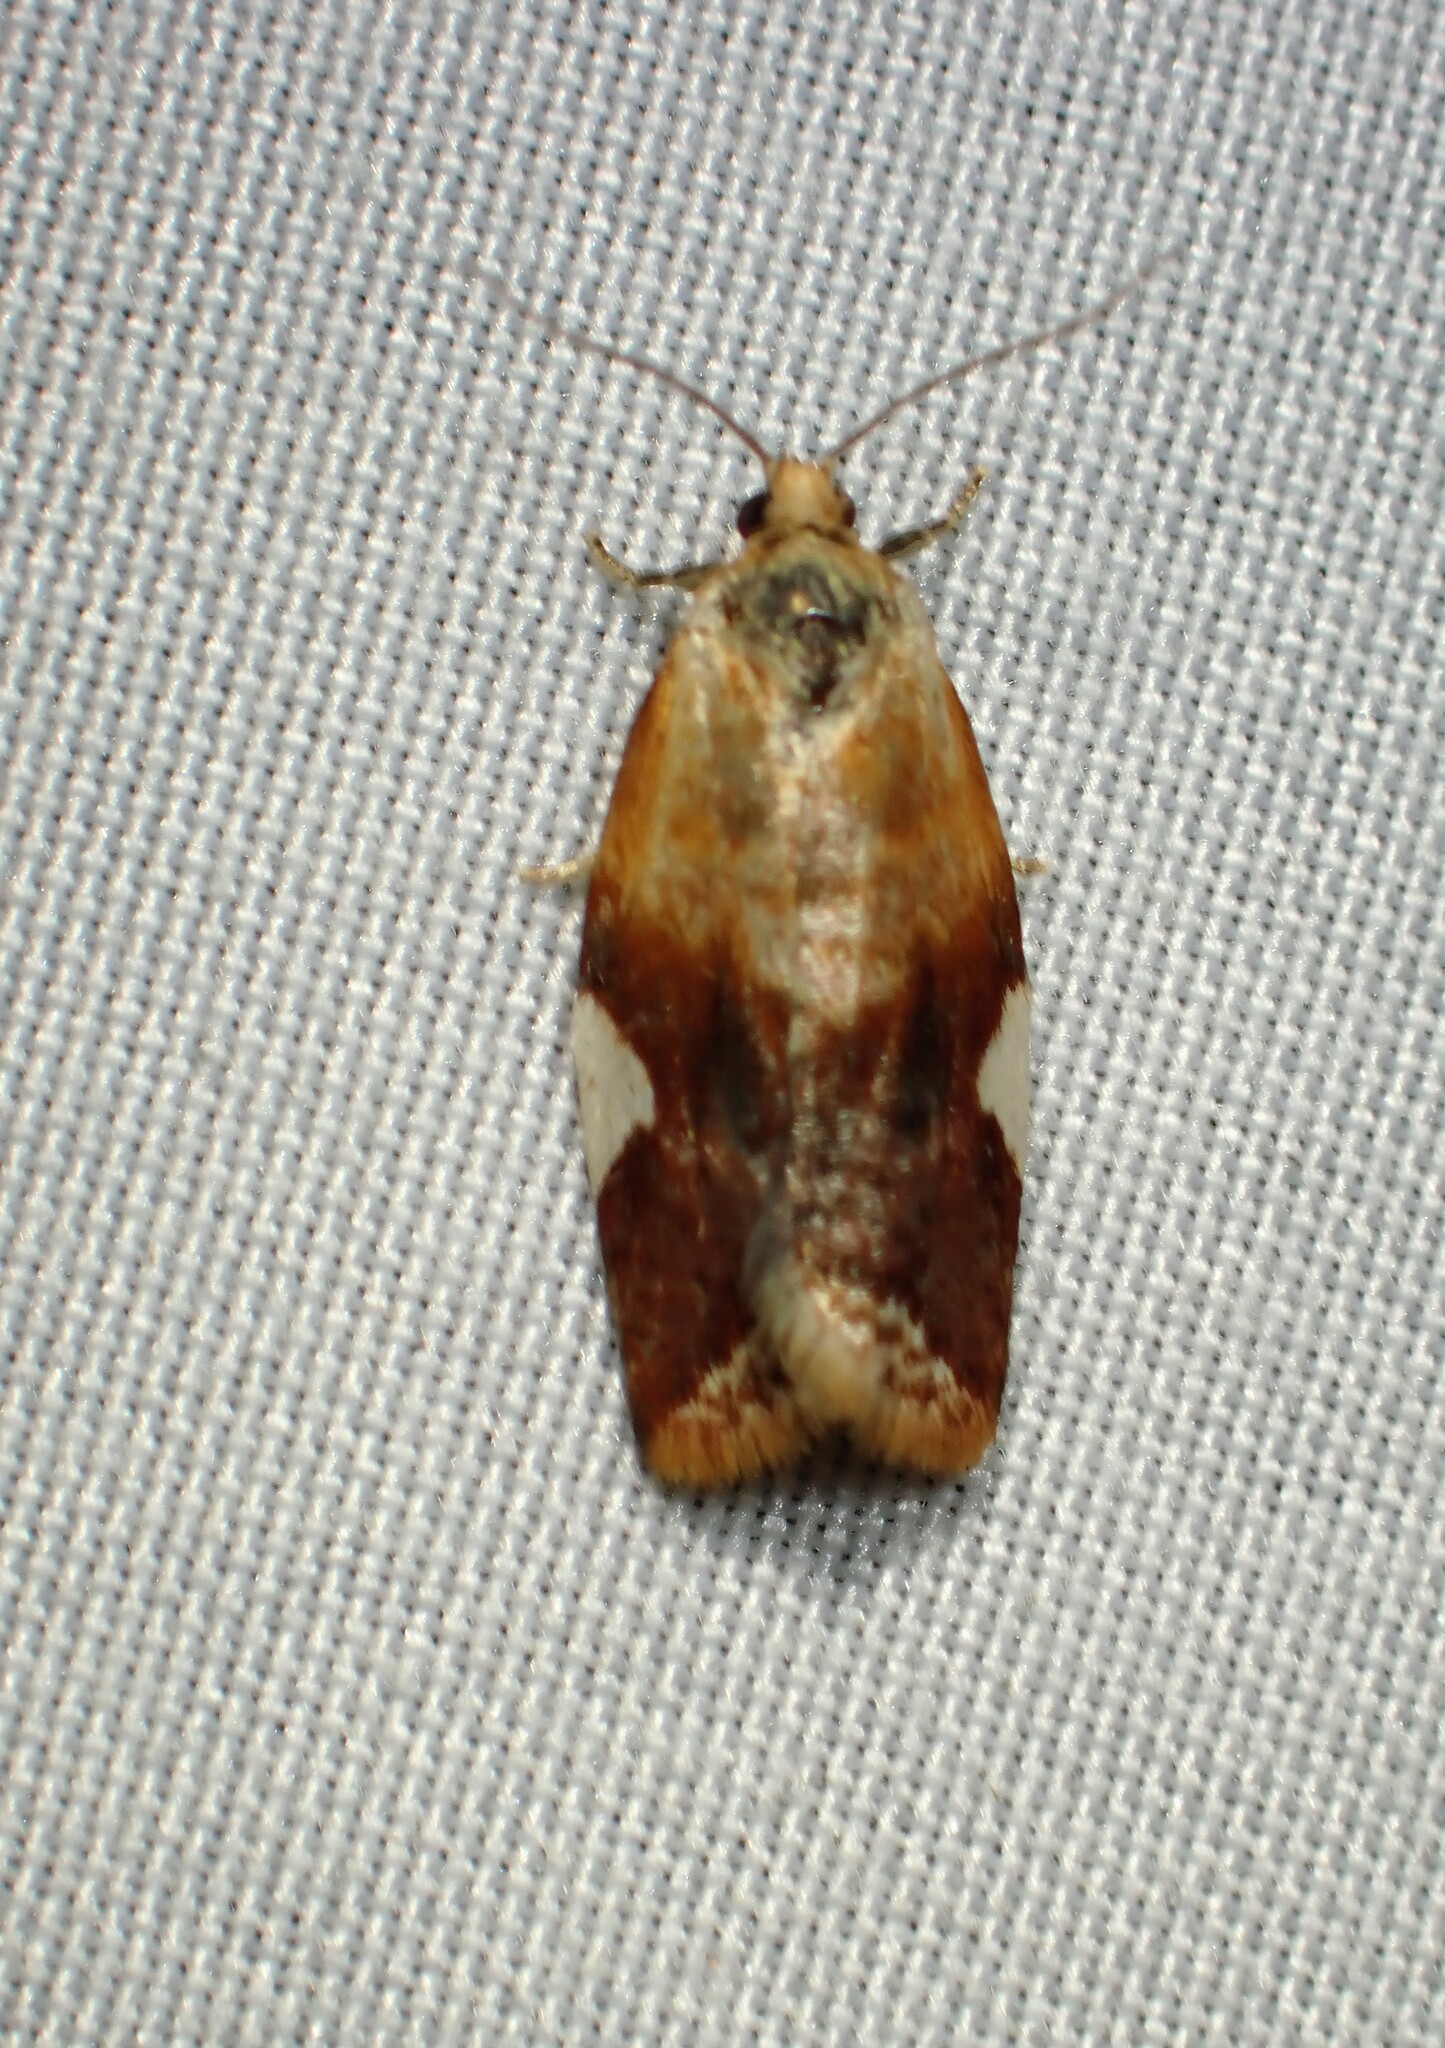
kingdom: Animalia
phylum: Arthropoda
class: Insecta
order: Lepidoptera
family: Tortricidae
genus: Clepsis
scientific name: Clepsis persicana
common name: White triangle tortrix
